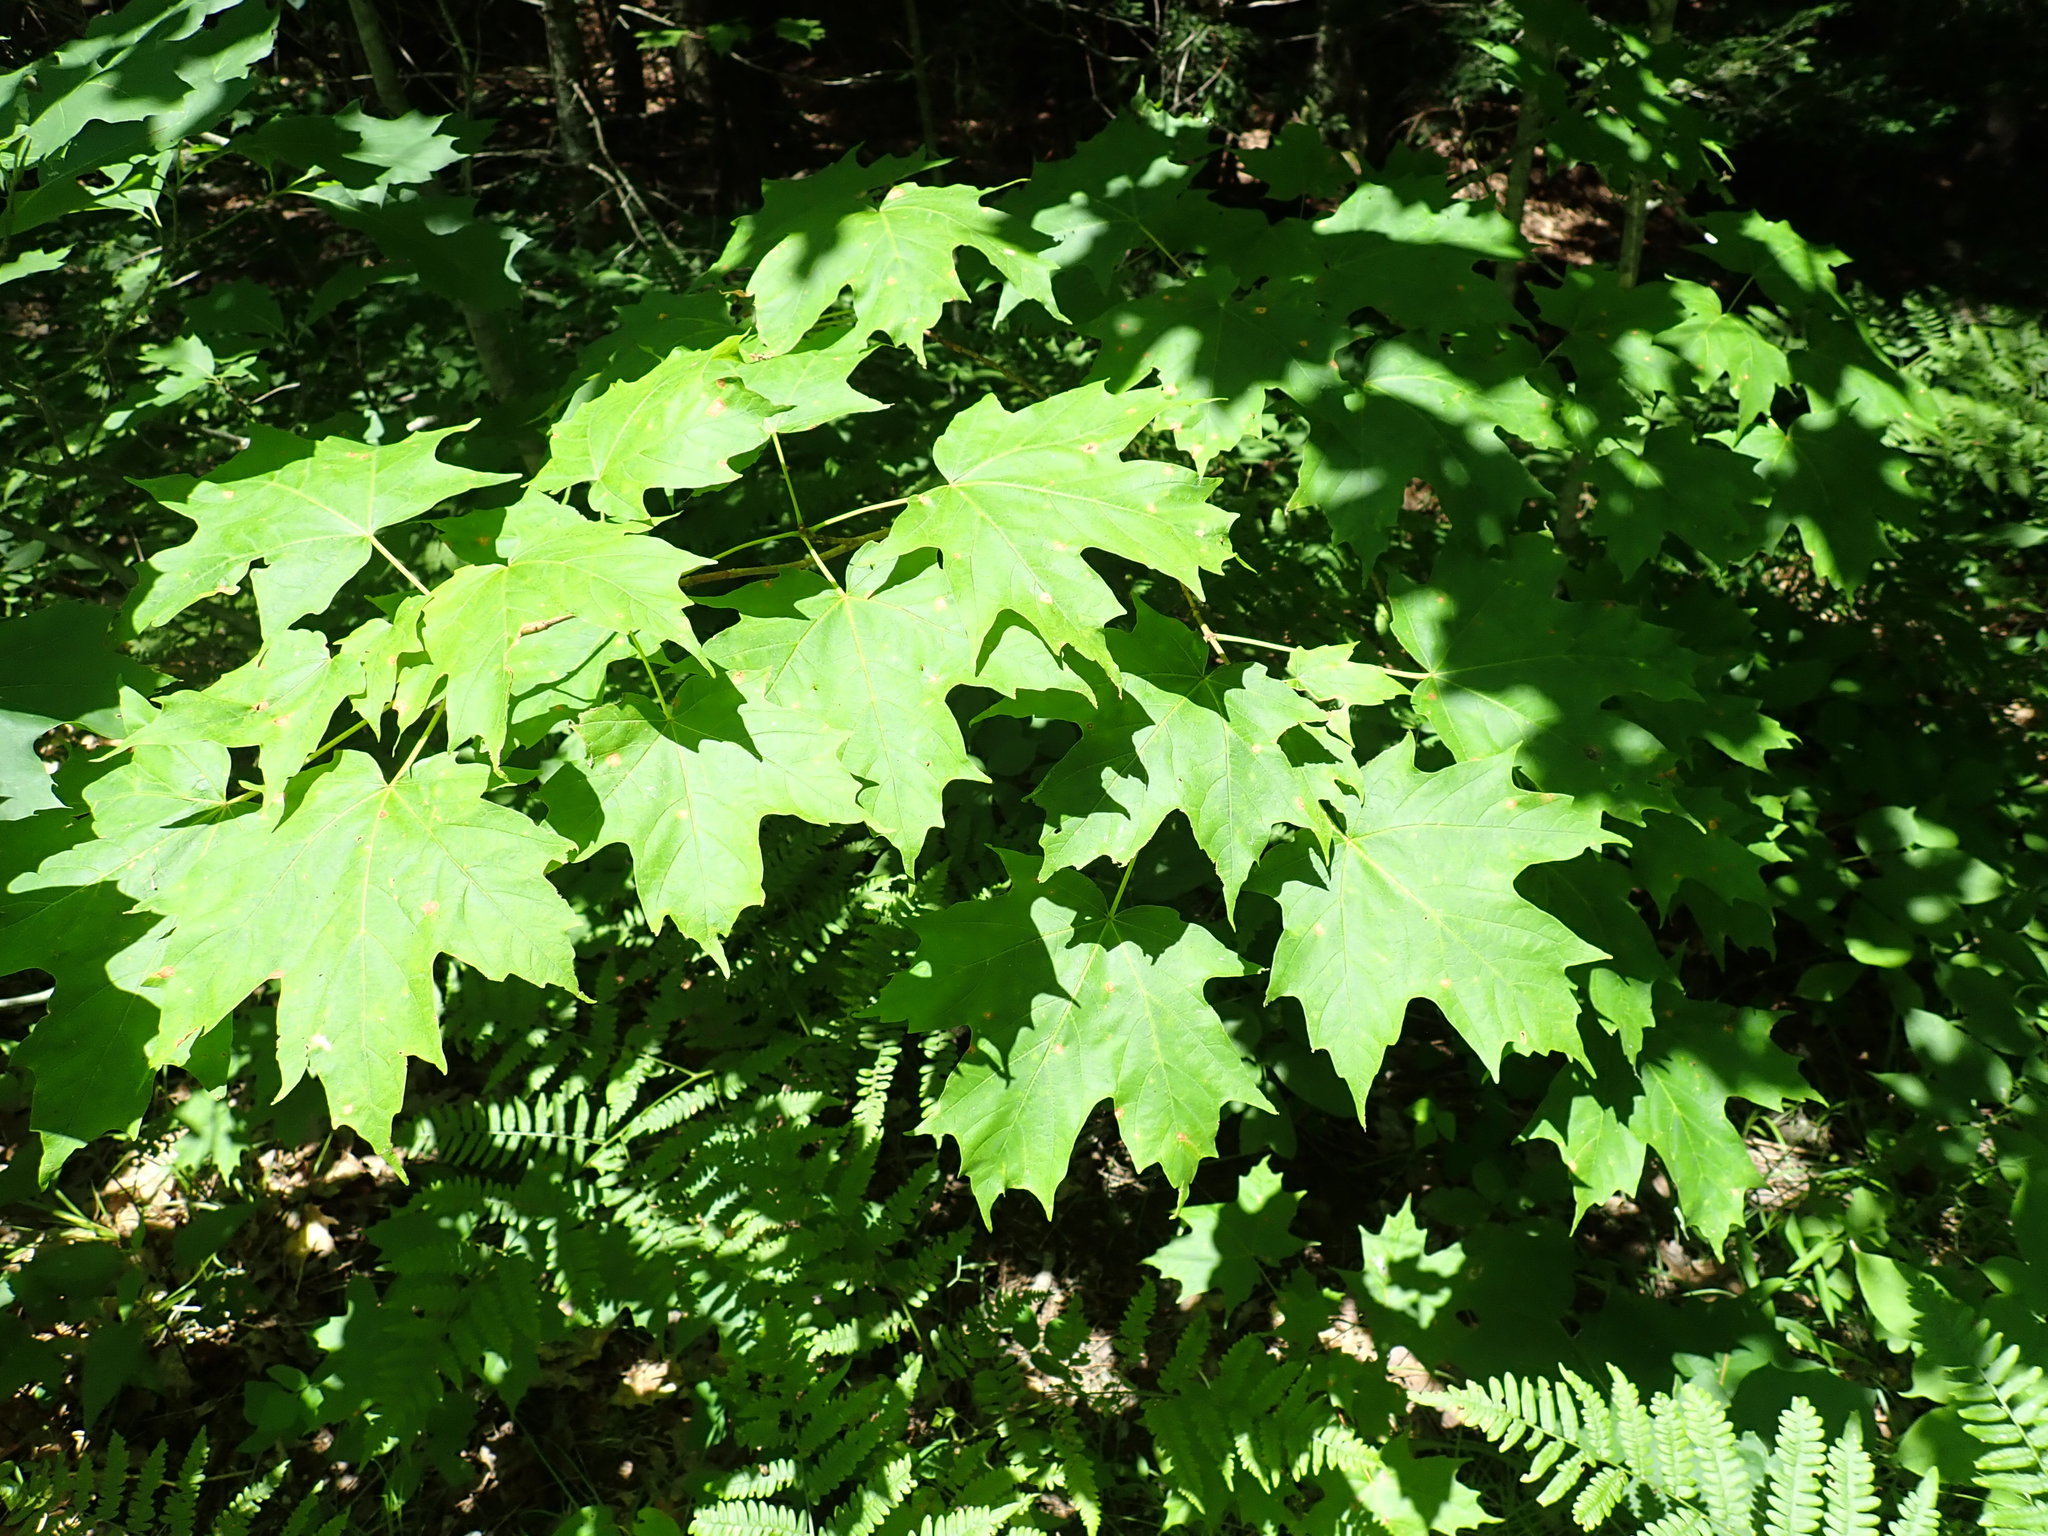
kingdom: Plantae
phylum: Tracheophyta
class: Magnoliopsida
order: Sapindales
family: Sapindaceae
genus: Acer
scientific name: Acer saccharum
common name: Sugar maple
